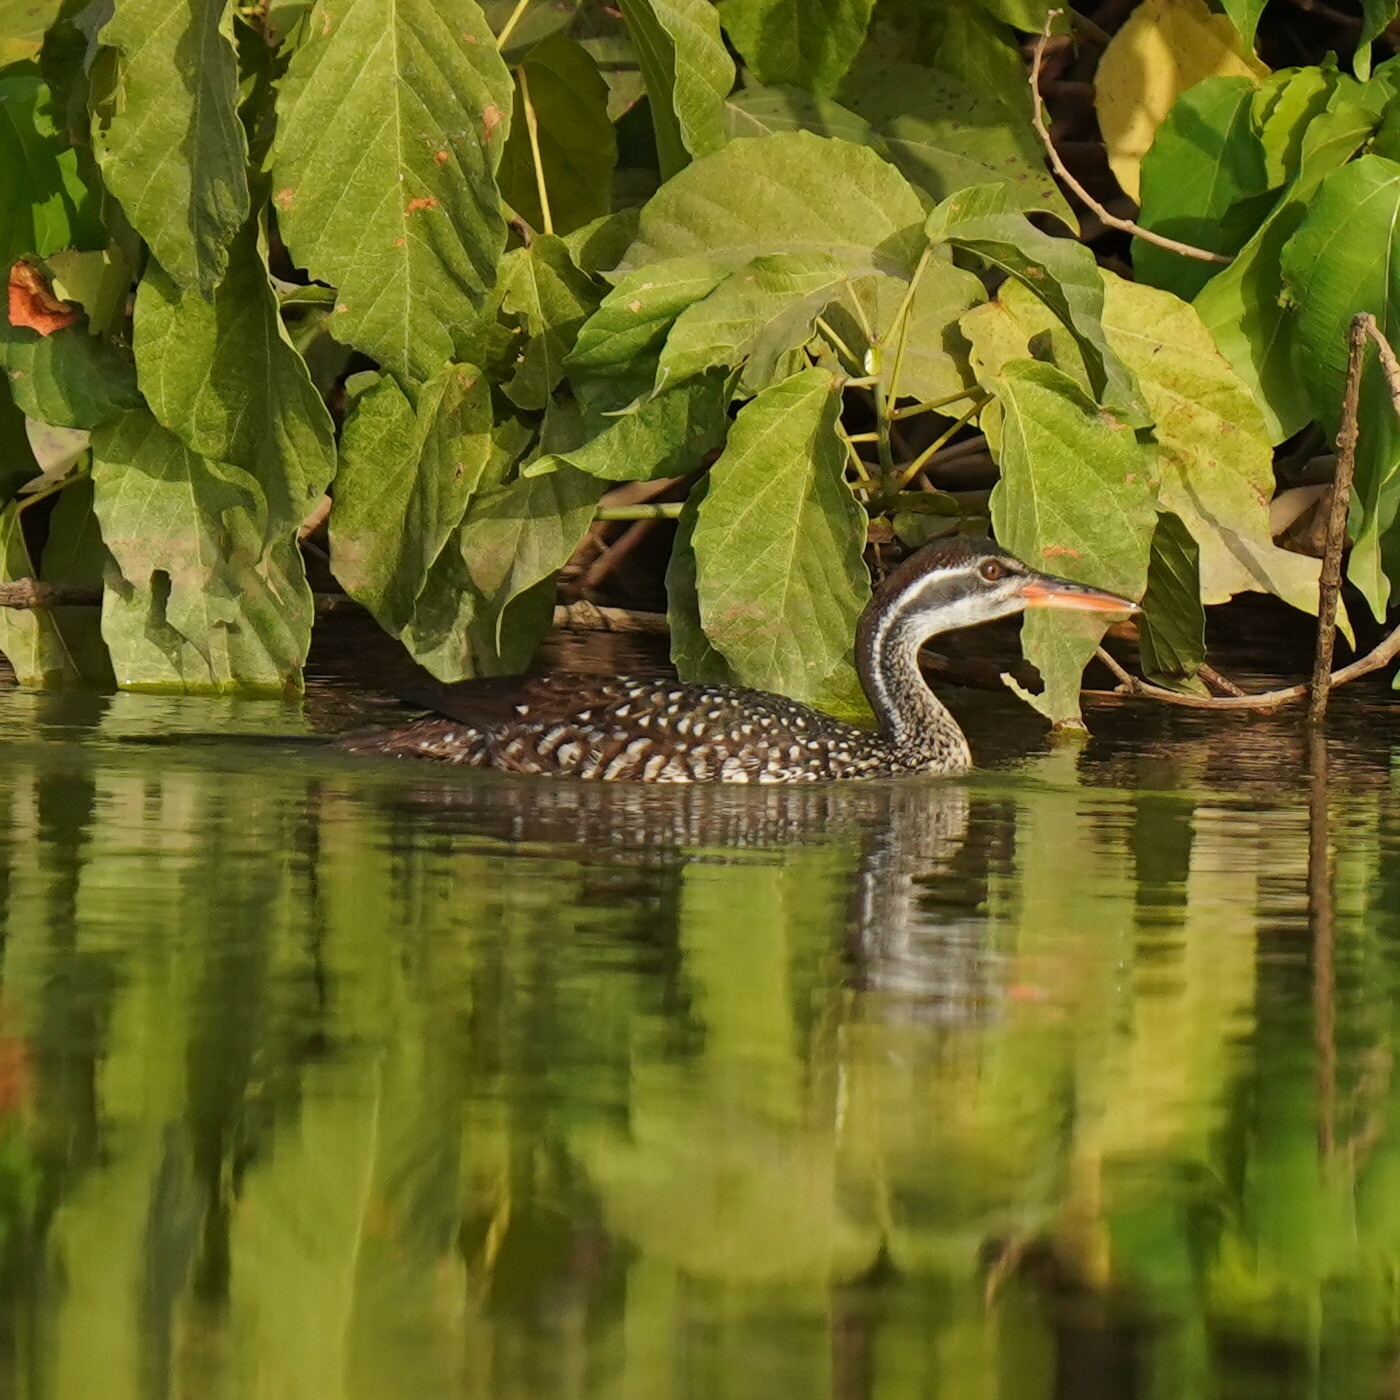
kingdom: Animalia
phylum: Chordata
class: Aves
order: Gruiformes
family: Heliornithidae
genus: Podica
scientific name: Podica senegalensis
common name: African finfoot
